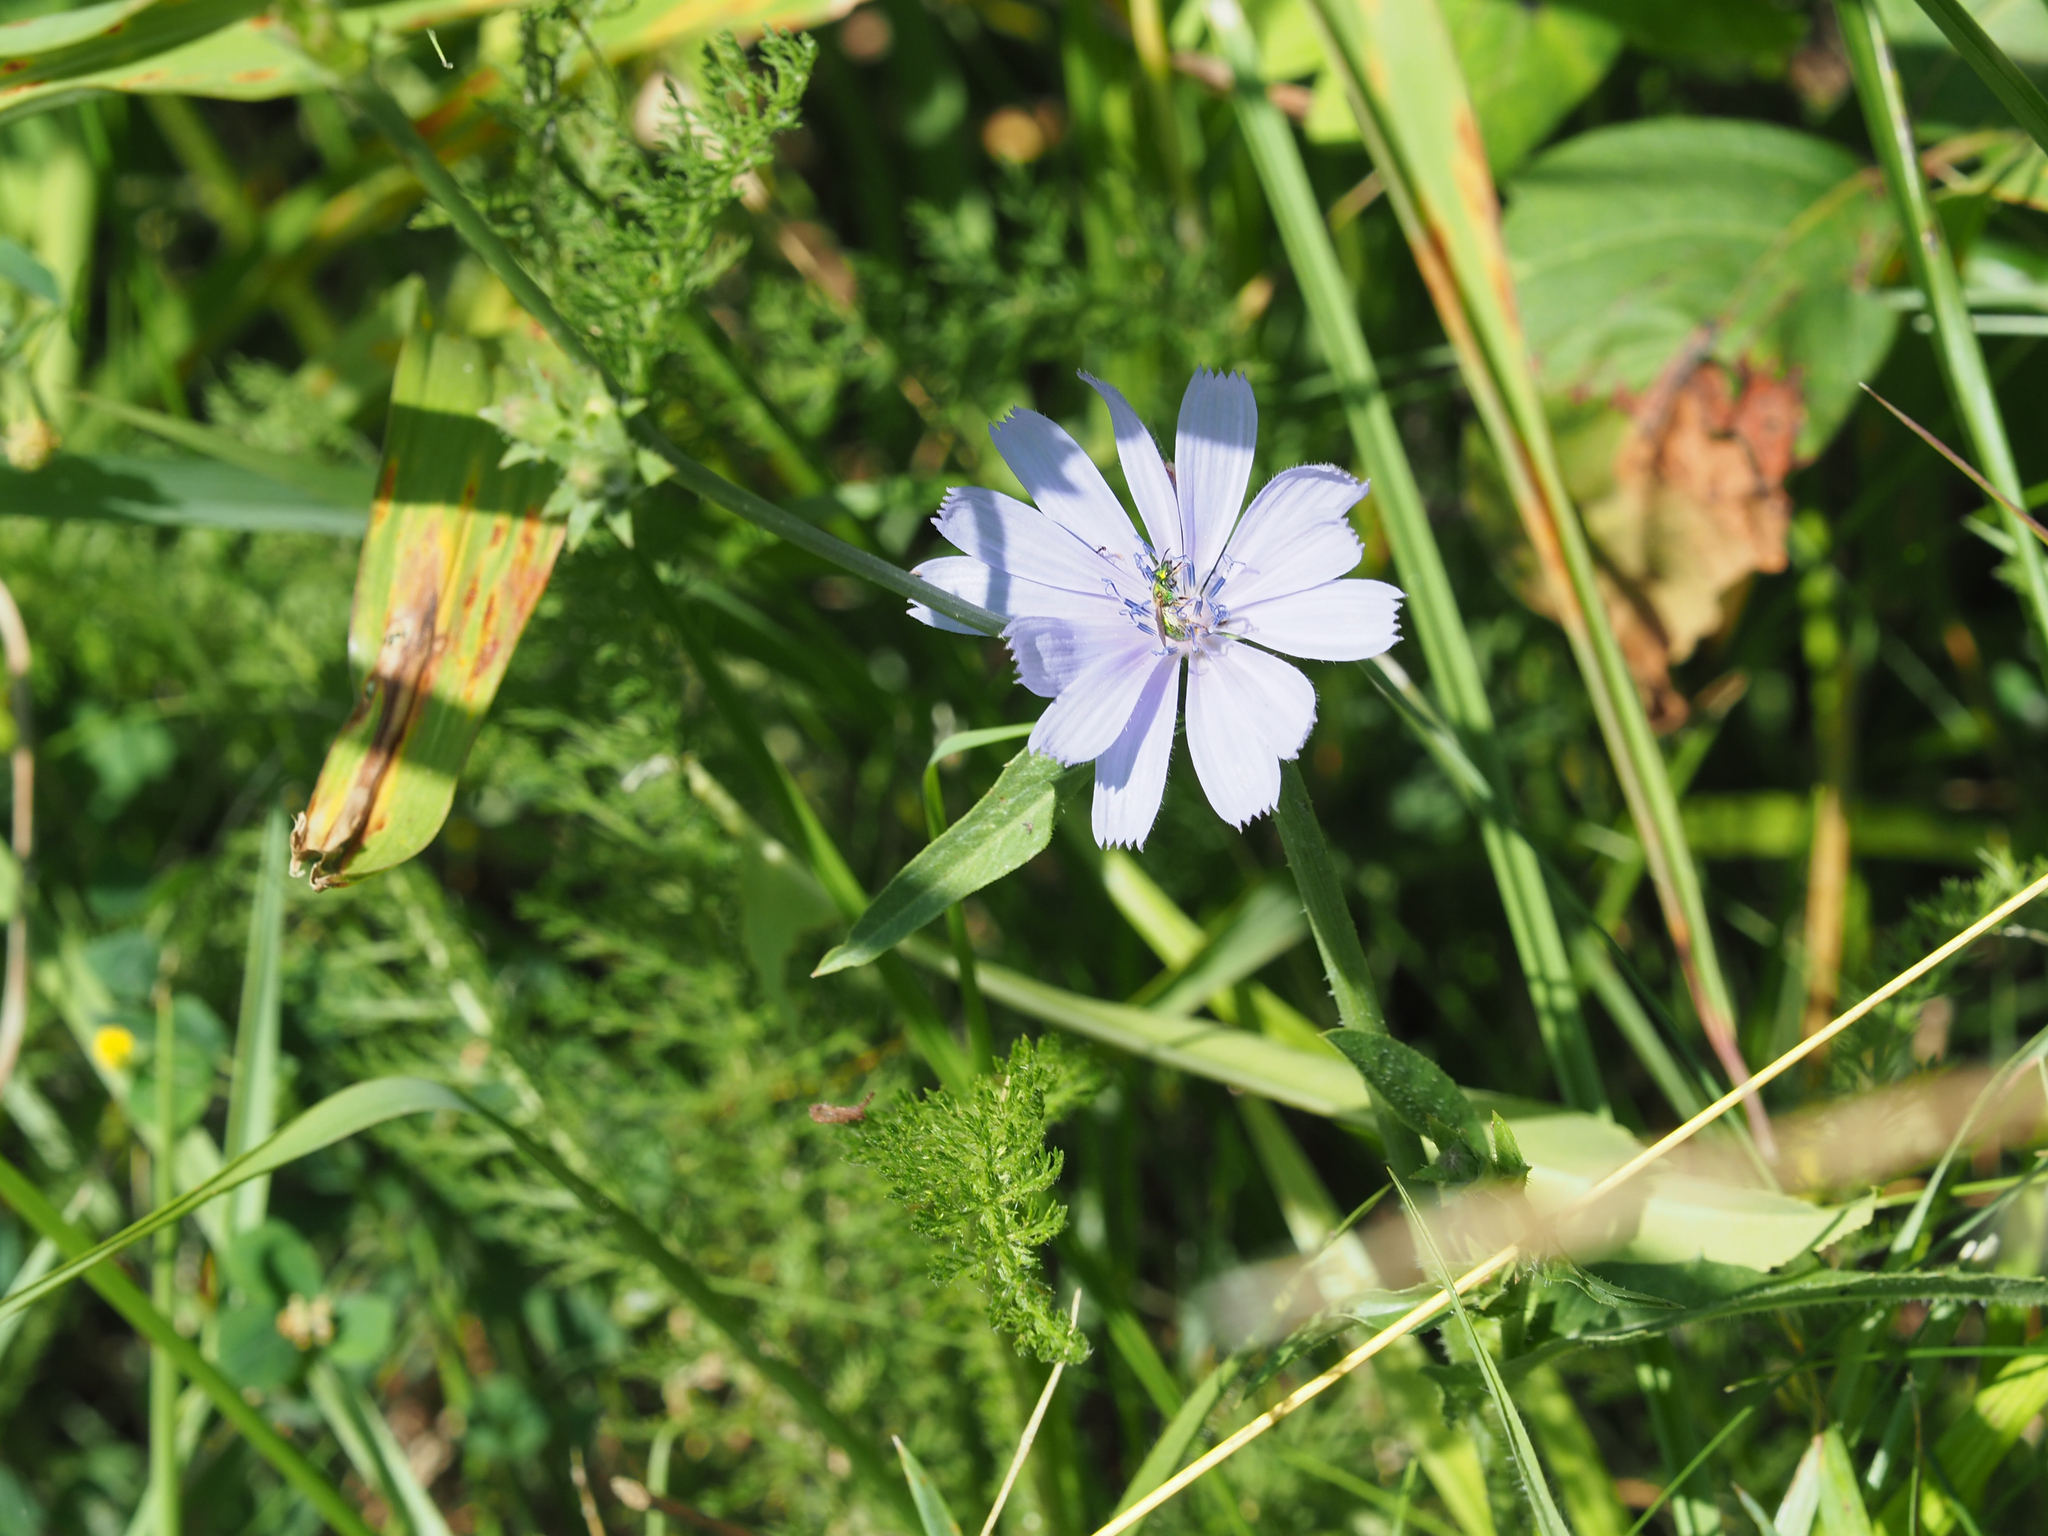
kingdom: Plantae
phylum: Tracheophyta
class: Magnoliopsida
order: Asterales
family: Asteraceae
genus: Cichorium
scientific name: Cichorium intybus
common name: Chicory
